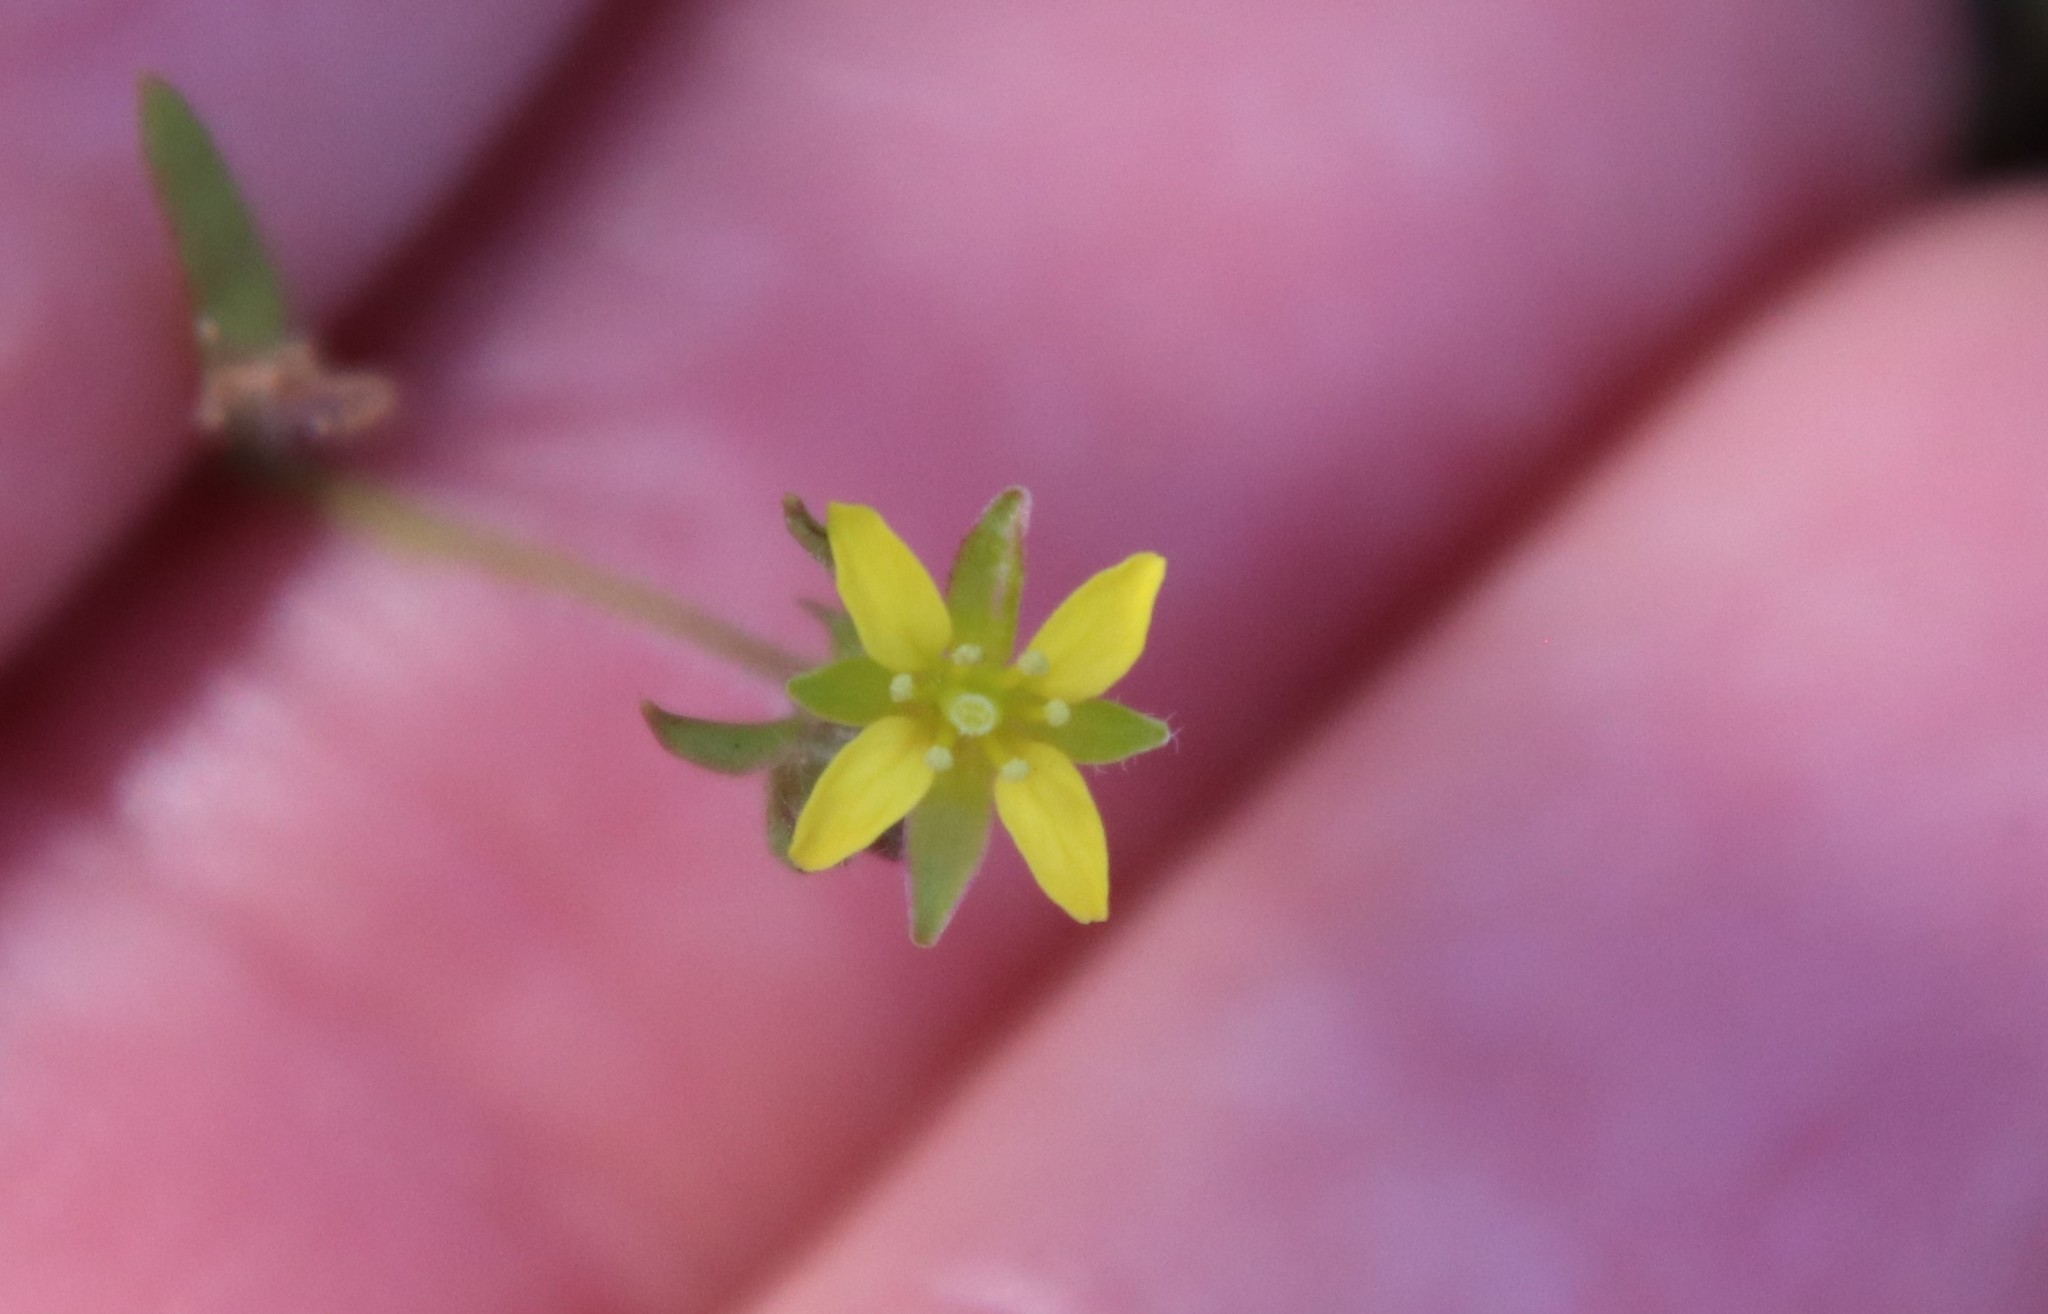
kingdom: Plantae
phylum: Tracheophyta
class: Magnoliopsida
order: Brassicales
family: Brassicaceae
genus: Tropidocarpum
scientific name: Tropidocarpum gracile
